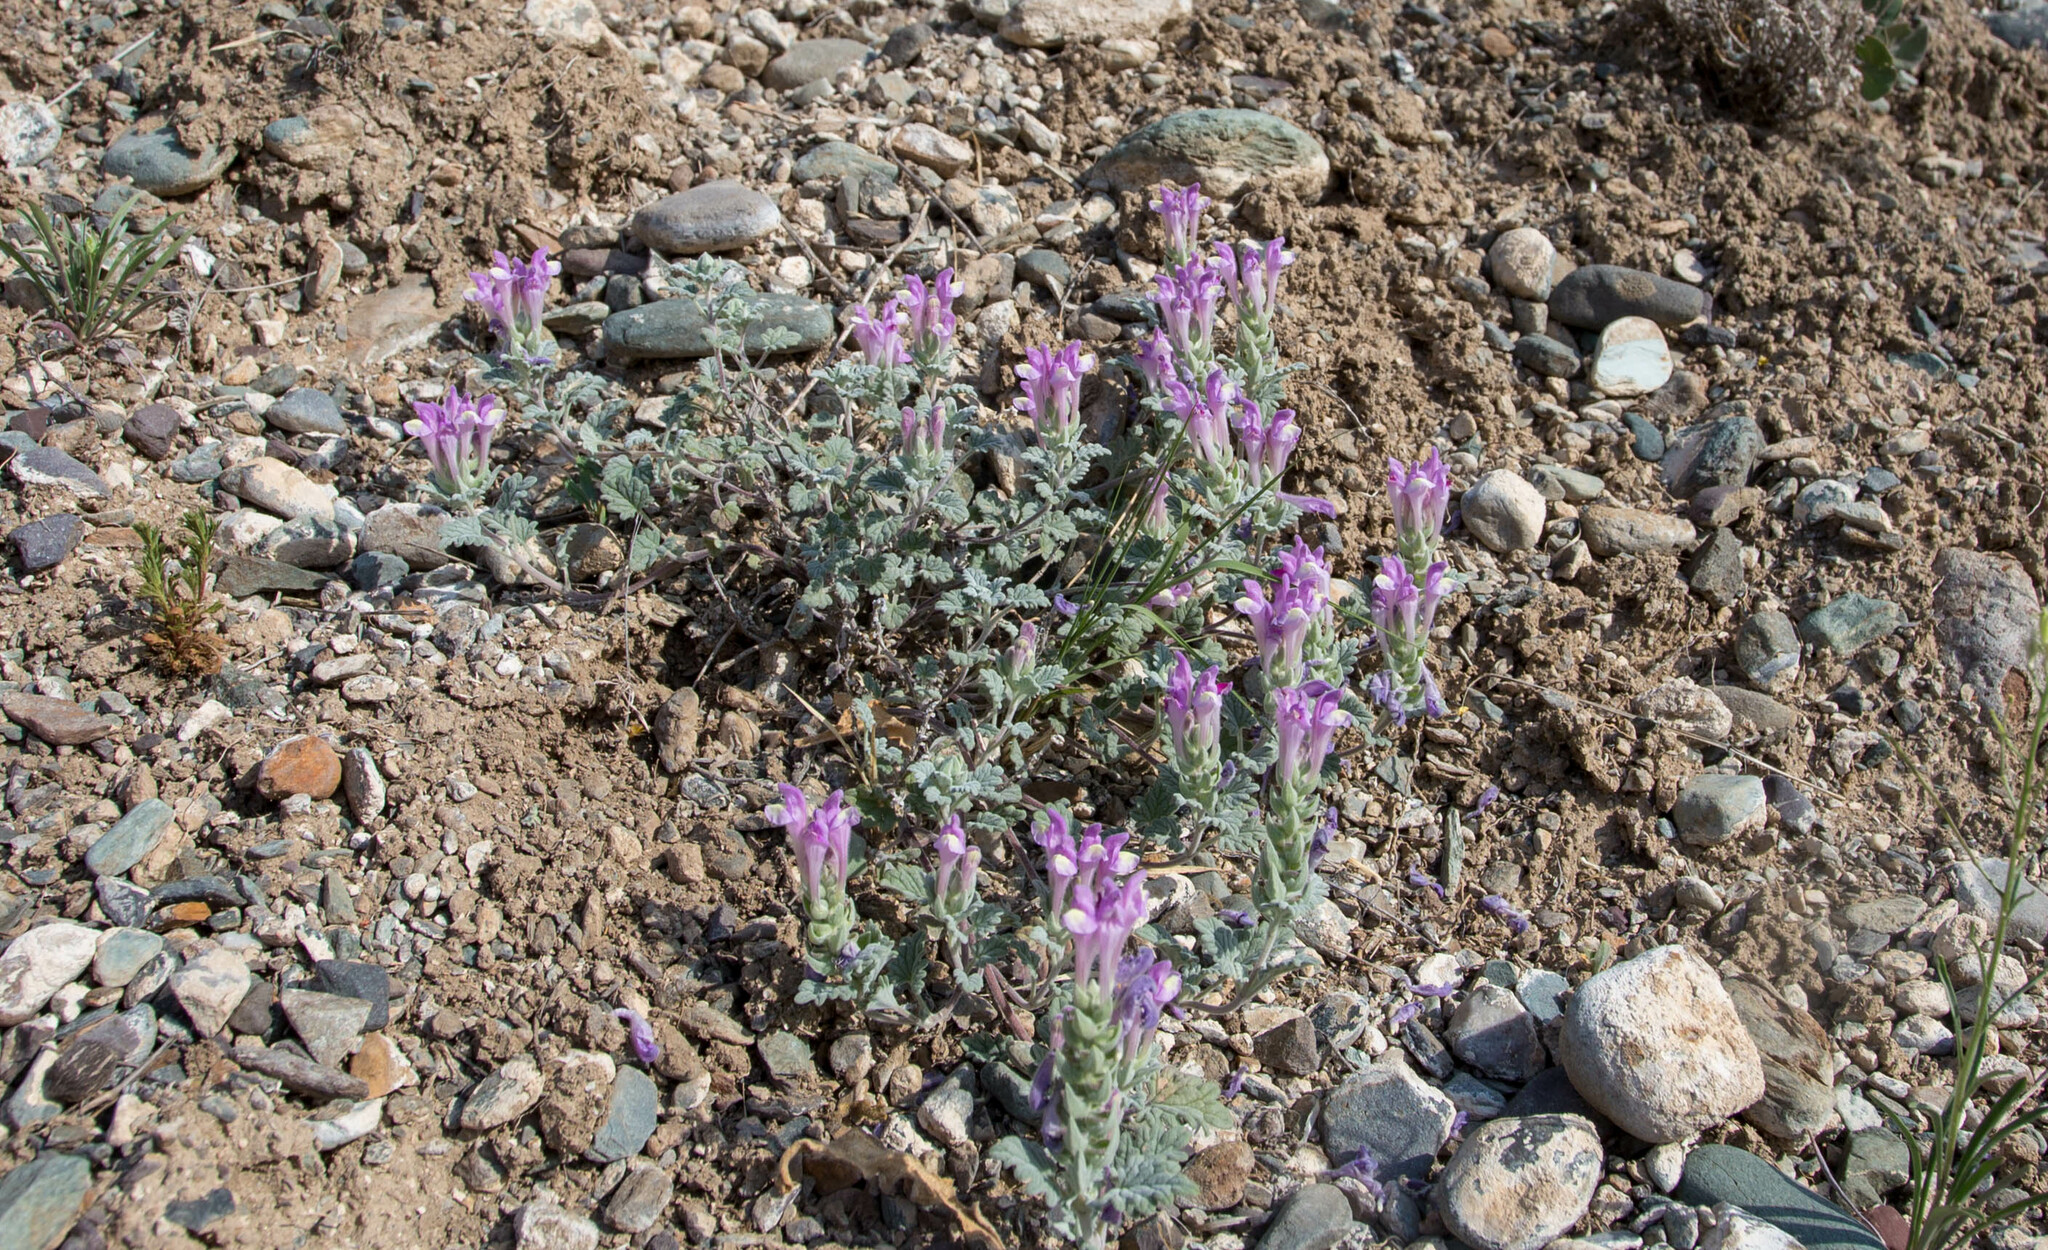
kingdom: Plantae
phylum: Tracheophyta
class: Magnoliopsida
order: Lamiales
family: Lamiaceae
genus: Scutellaria
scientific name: Scutellaria grandiflora
